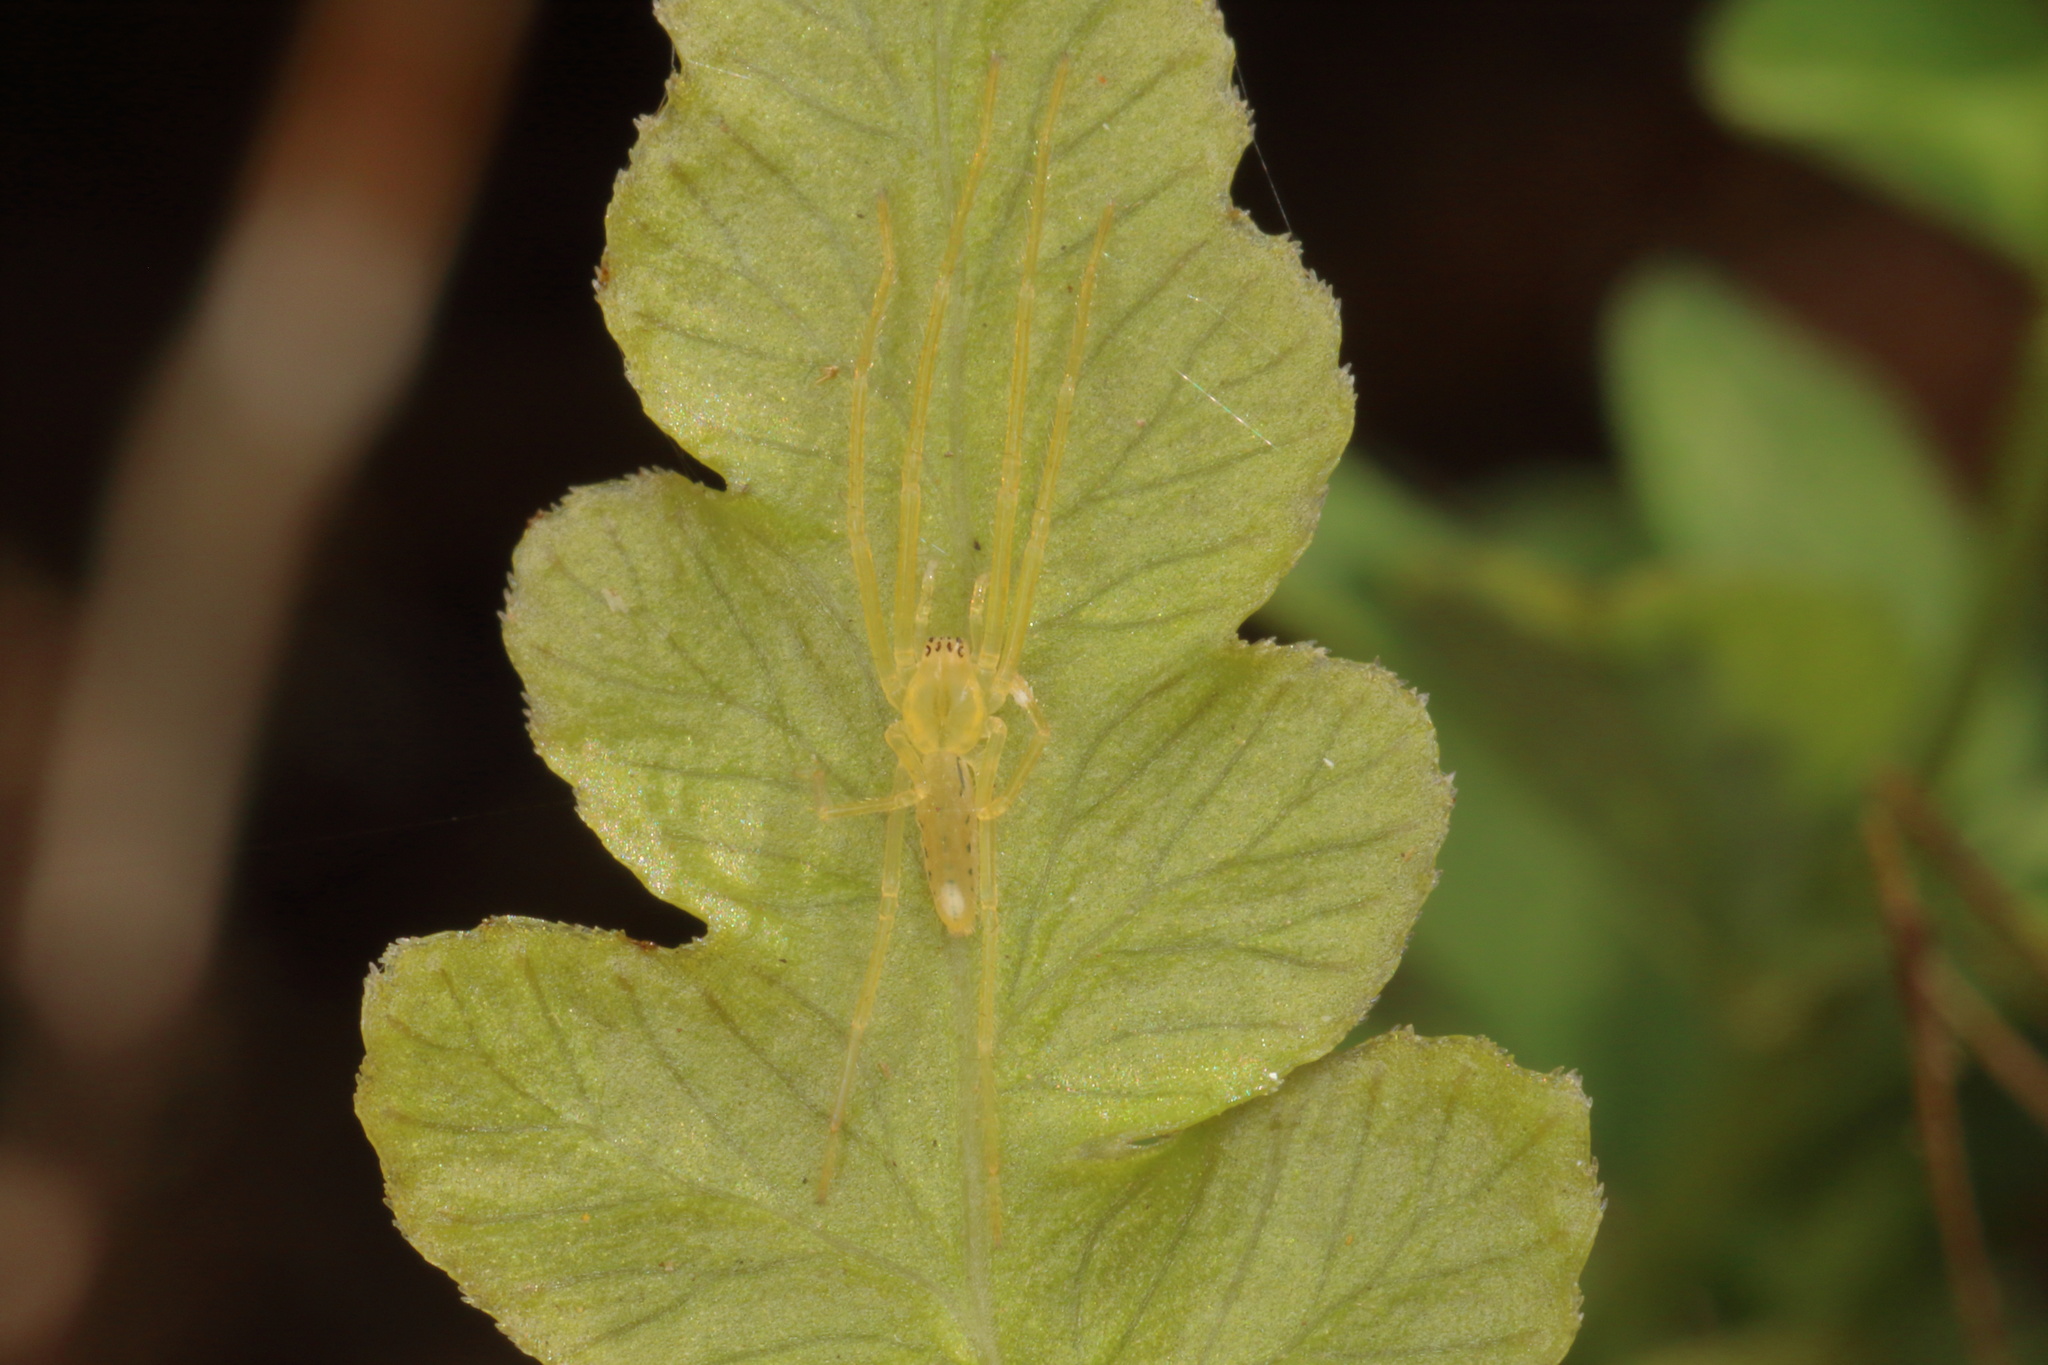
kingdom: Animalia
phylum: Arthropoda
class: Arachnida
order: Araneae
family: Desidae
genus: Ischalea
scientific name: Ischalea spinipes
